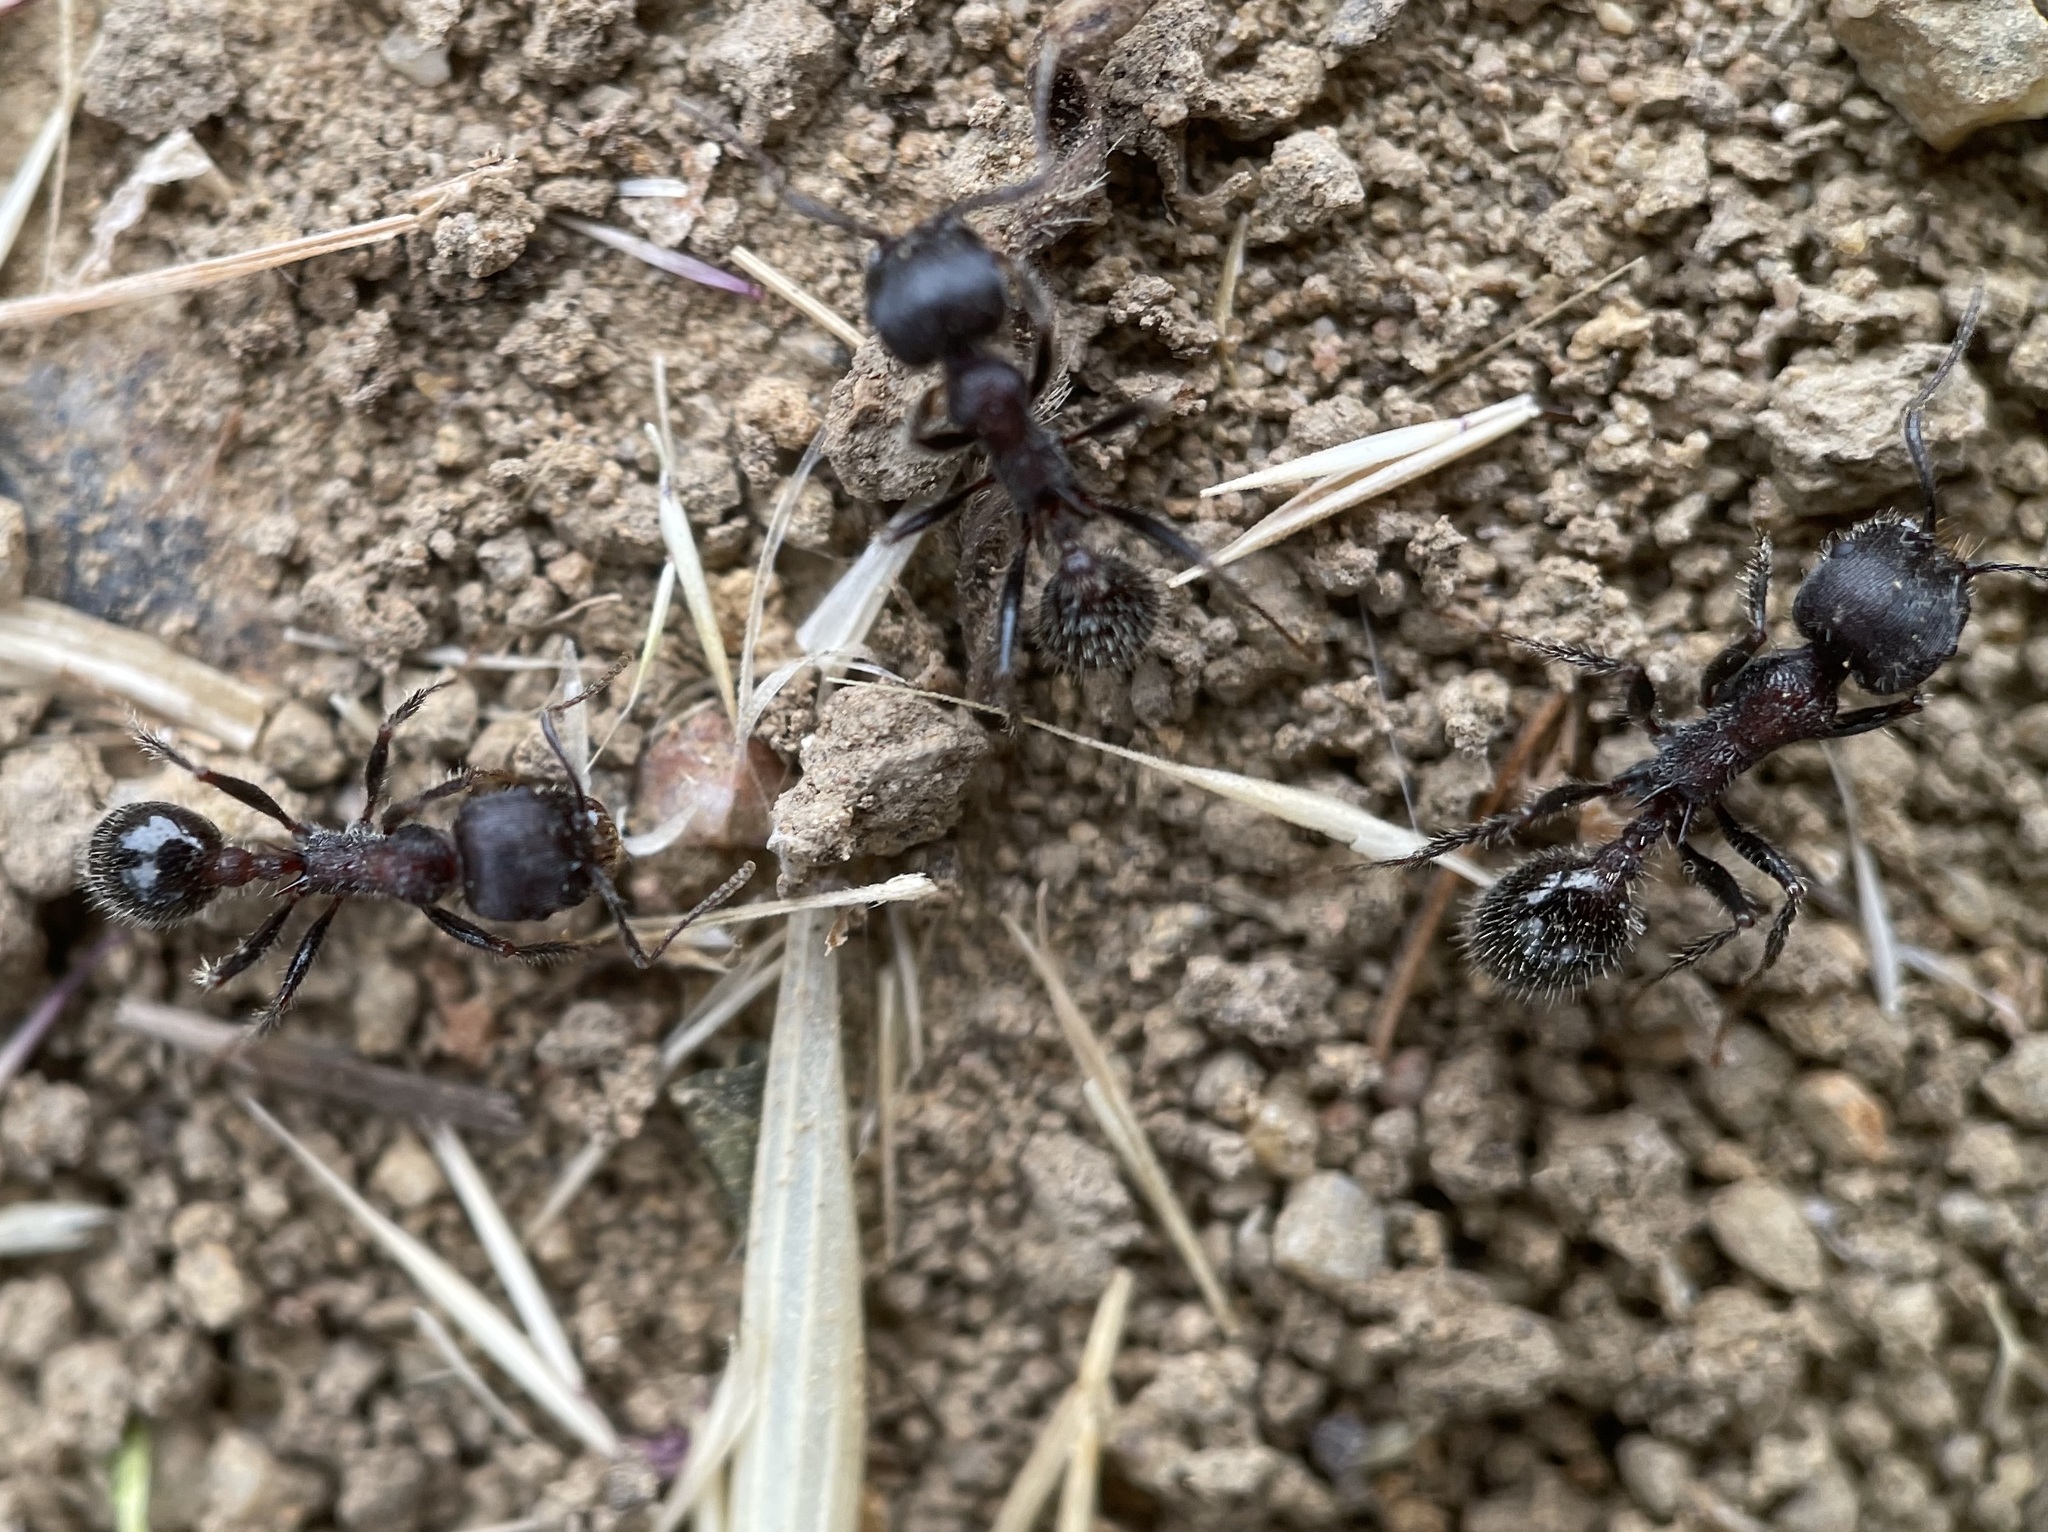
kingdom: Animalia
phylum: Arthropoda
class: Insecta
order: Hymenoptera
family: Formicidae
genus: Veromessor
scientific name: Veromessor andrei
